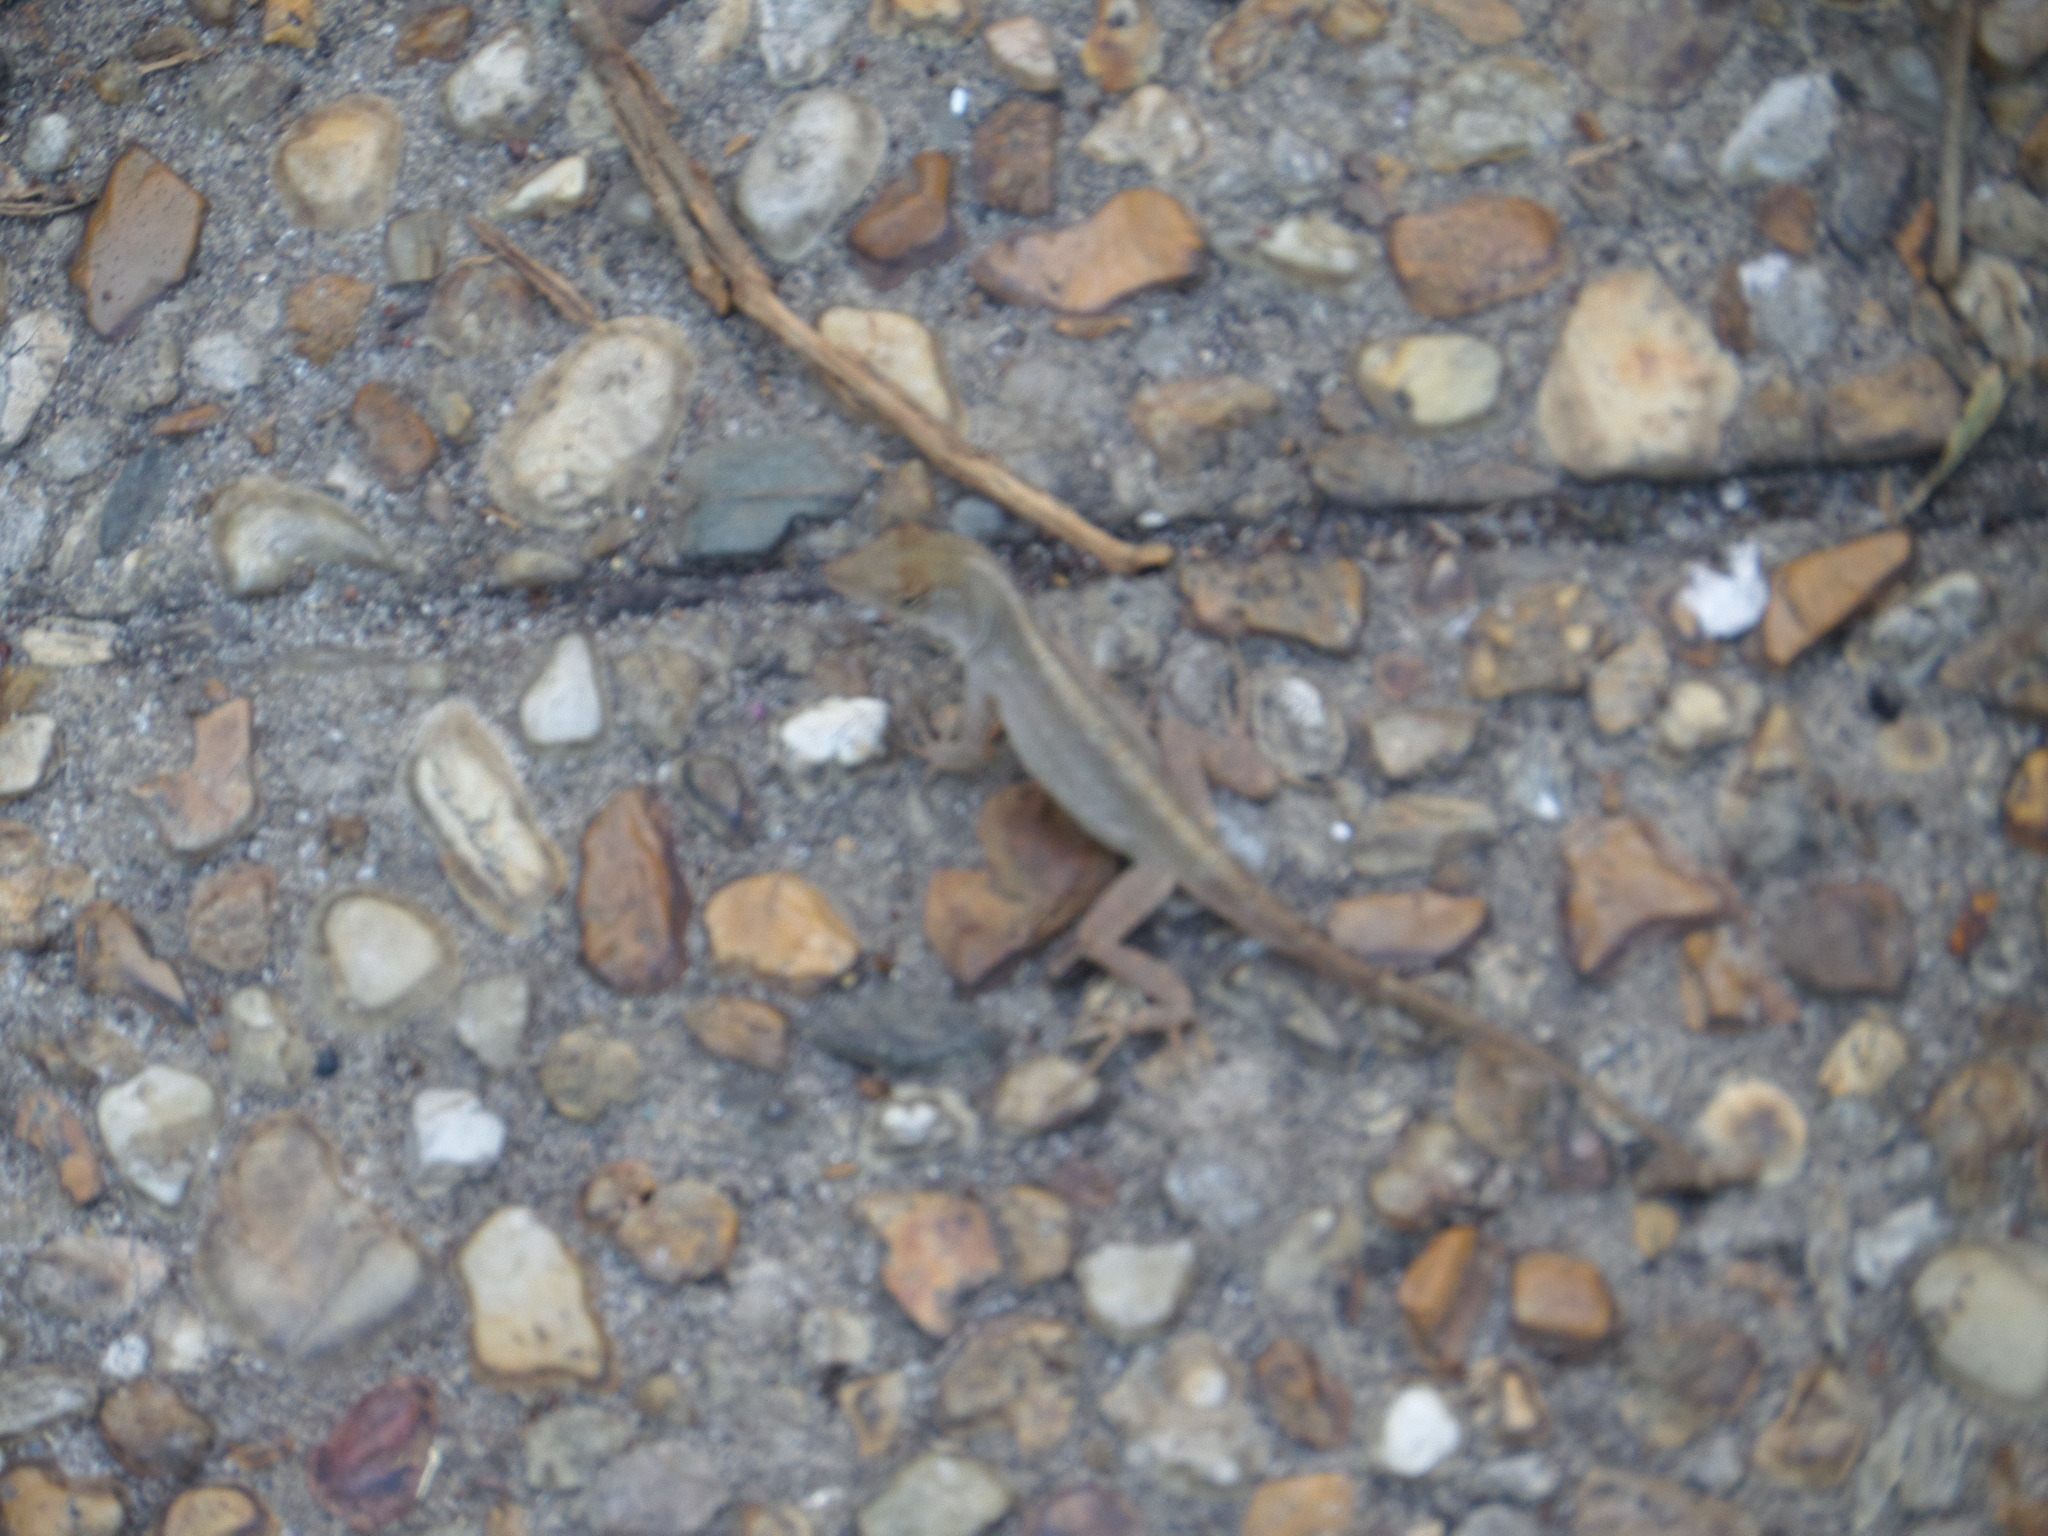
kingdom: Animalia
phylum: Chordata
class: Squamata
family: Dactyloidae
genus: Anolis
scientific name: Anolis sagrei
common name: Brown anole
